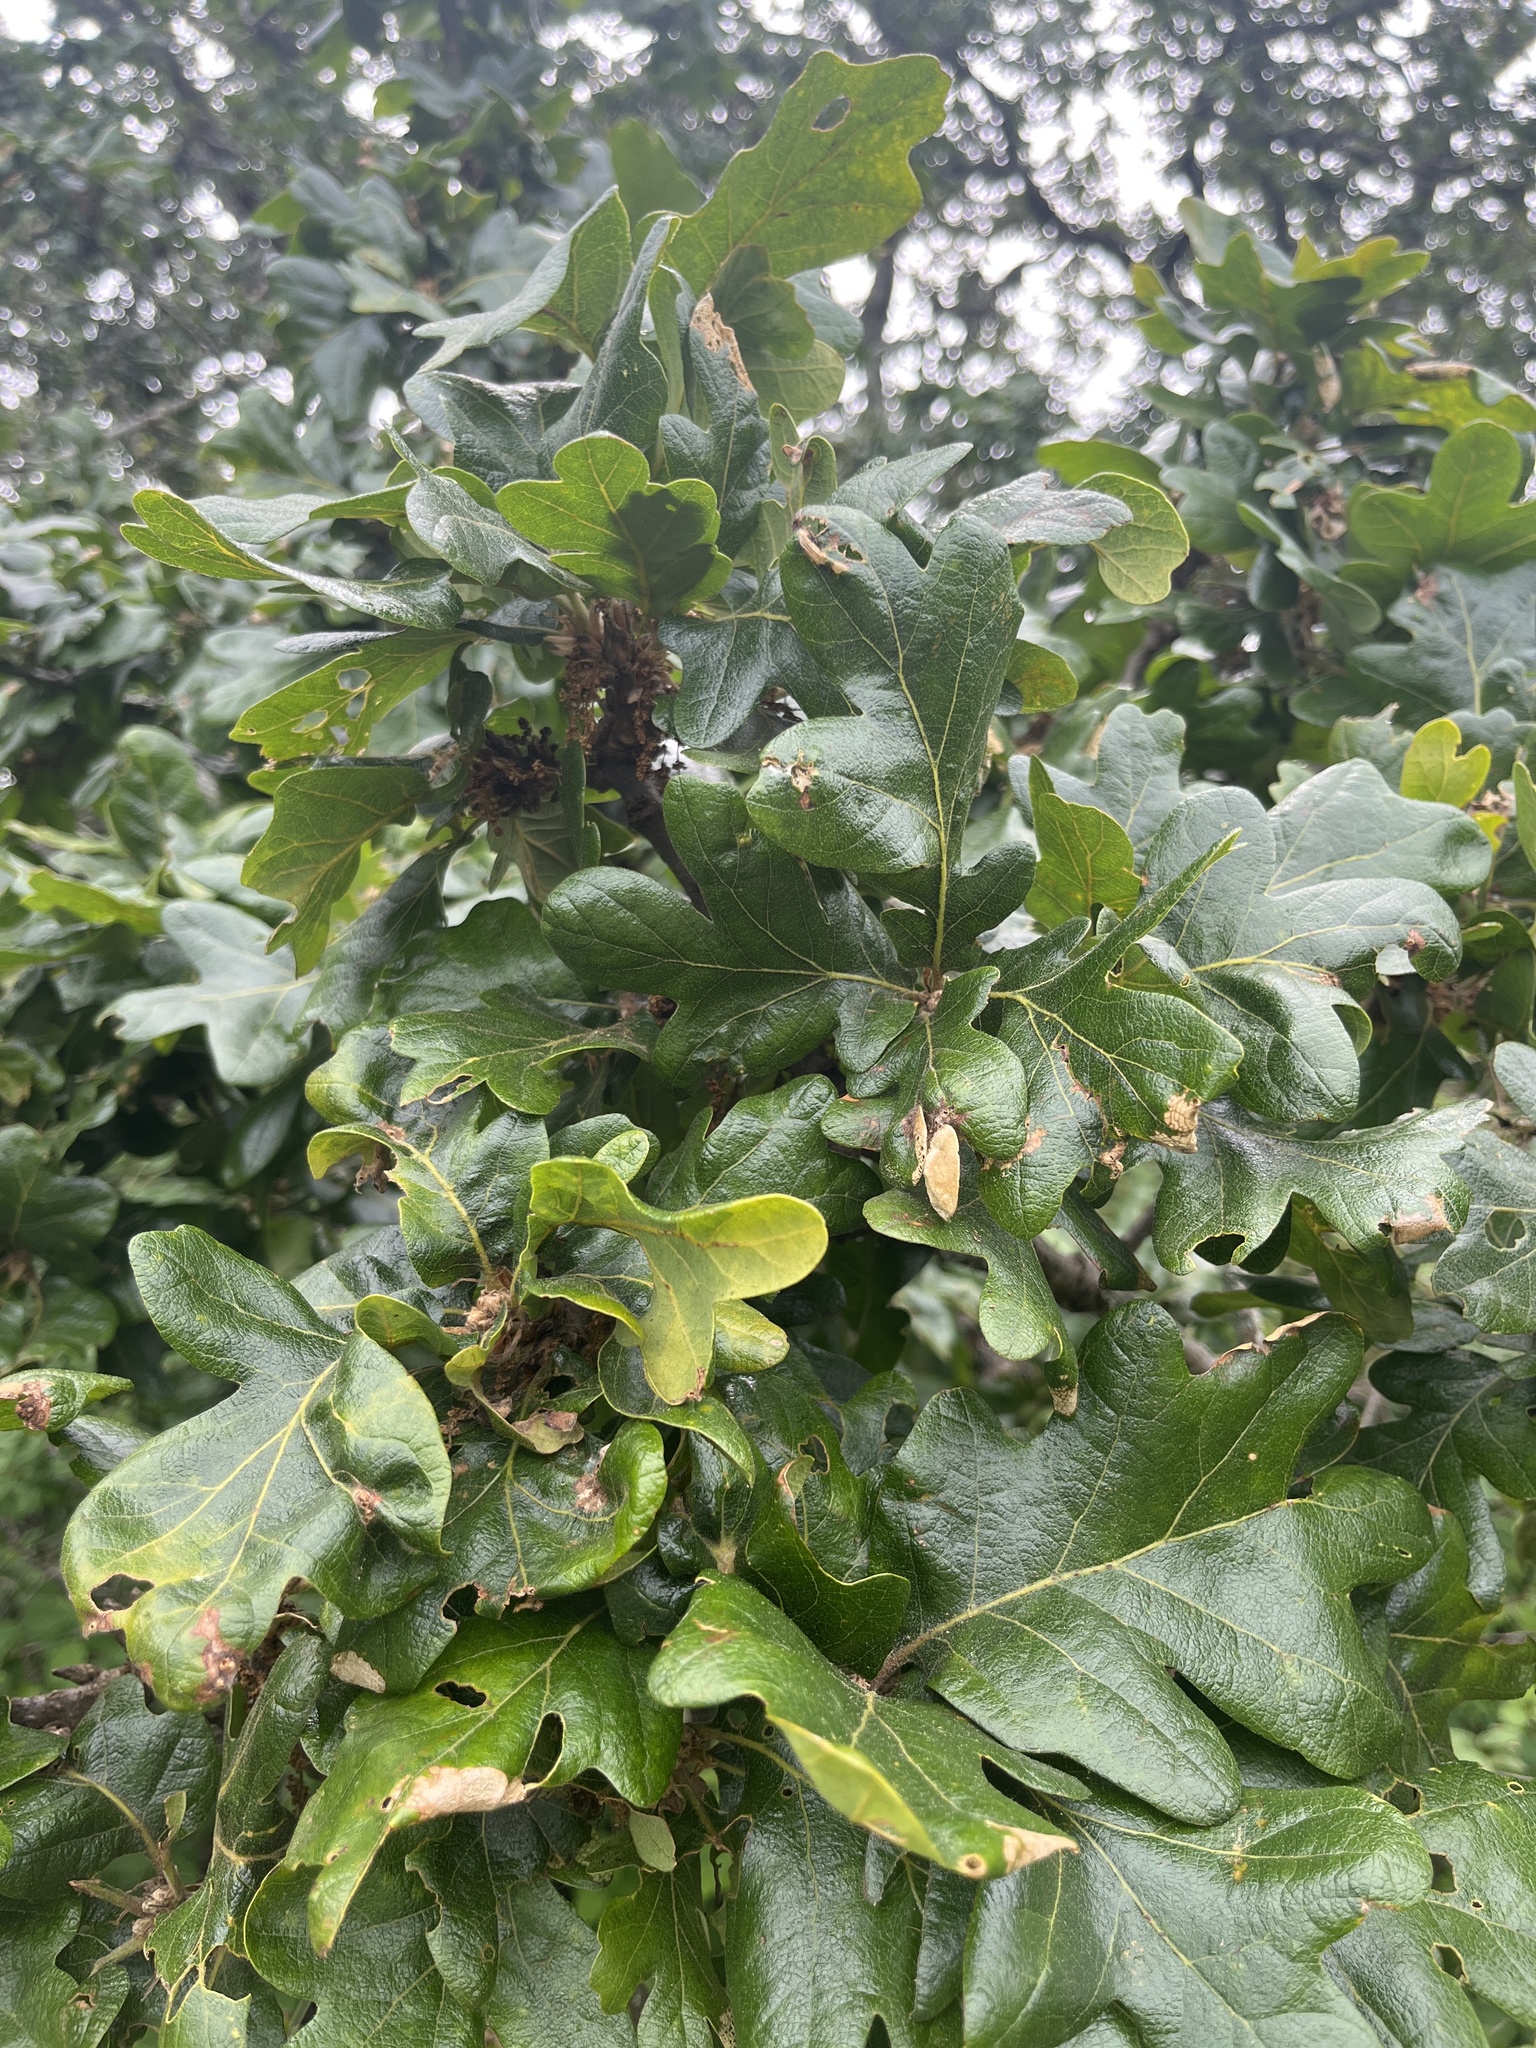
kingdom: Plantae
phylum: Tracheophyta
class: Magnoliopsida
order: Fagales
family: Fagaceae
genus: Quercus
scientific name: Quercus garryana
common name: Garry oak
